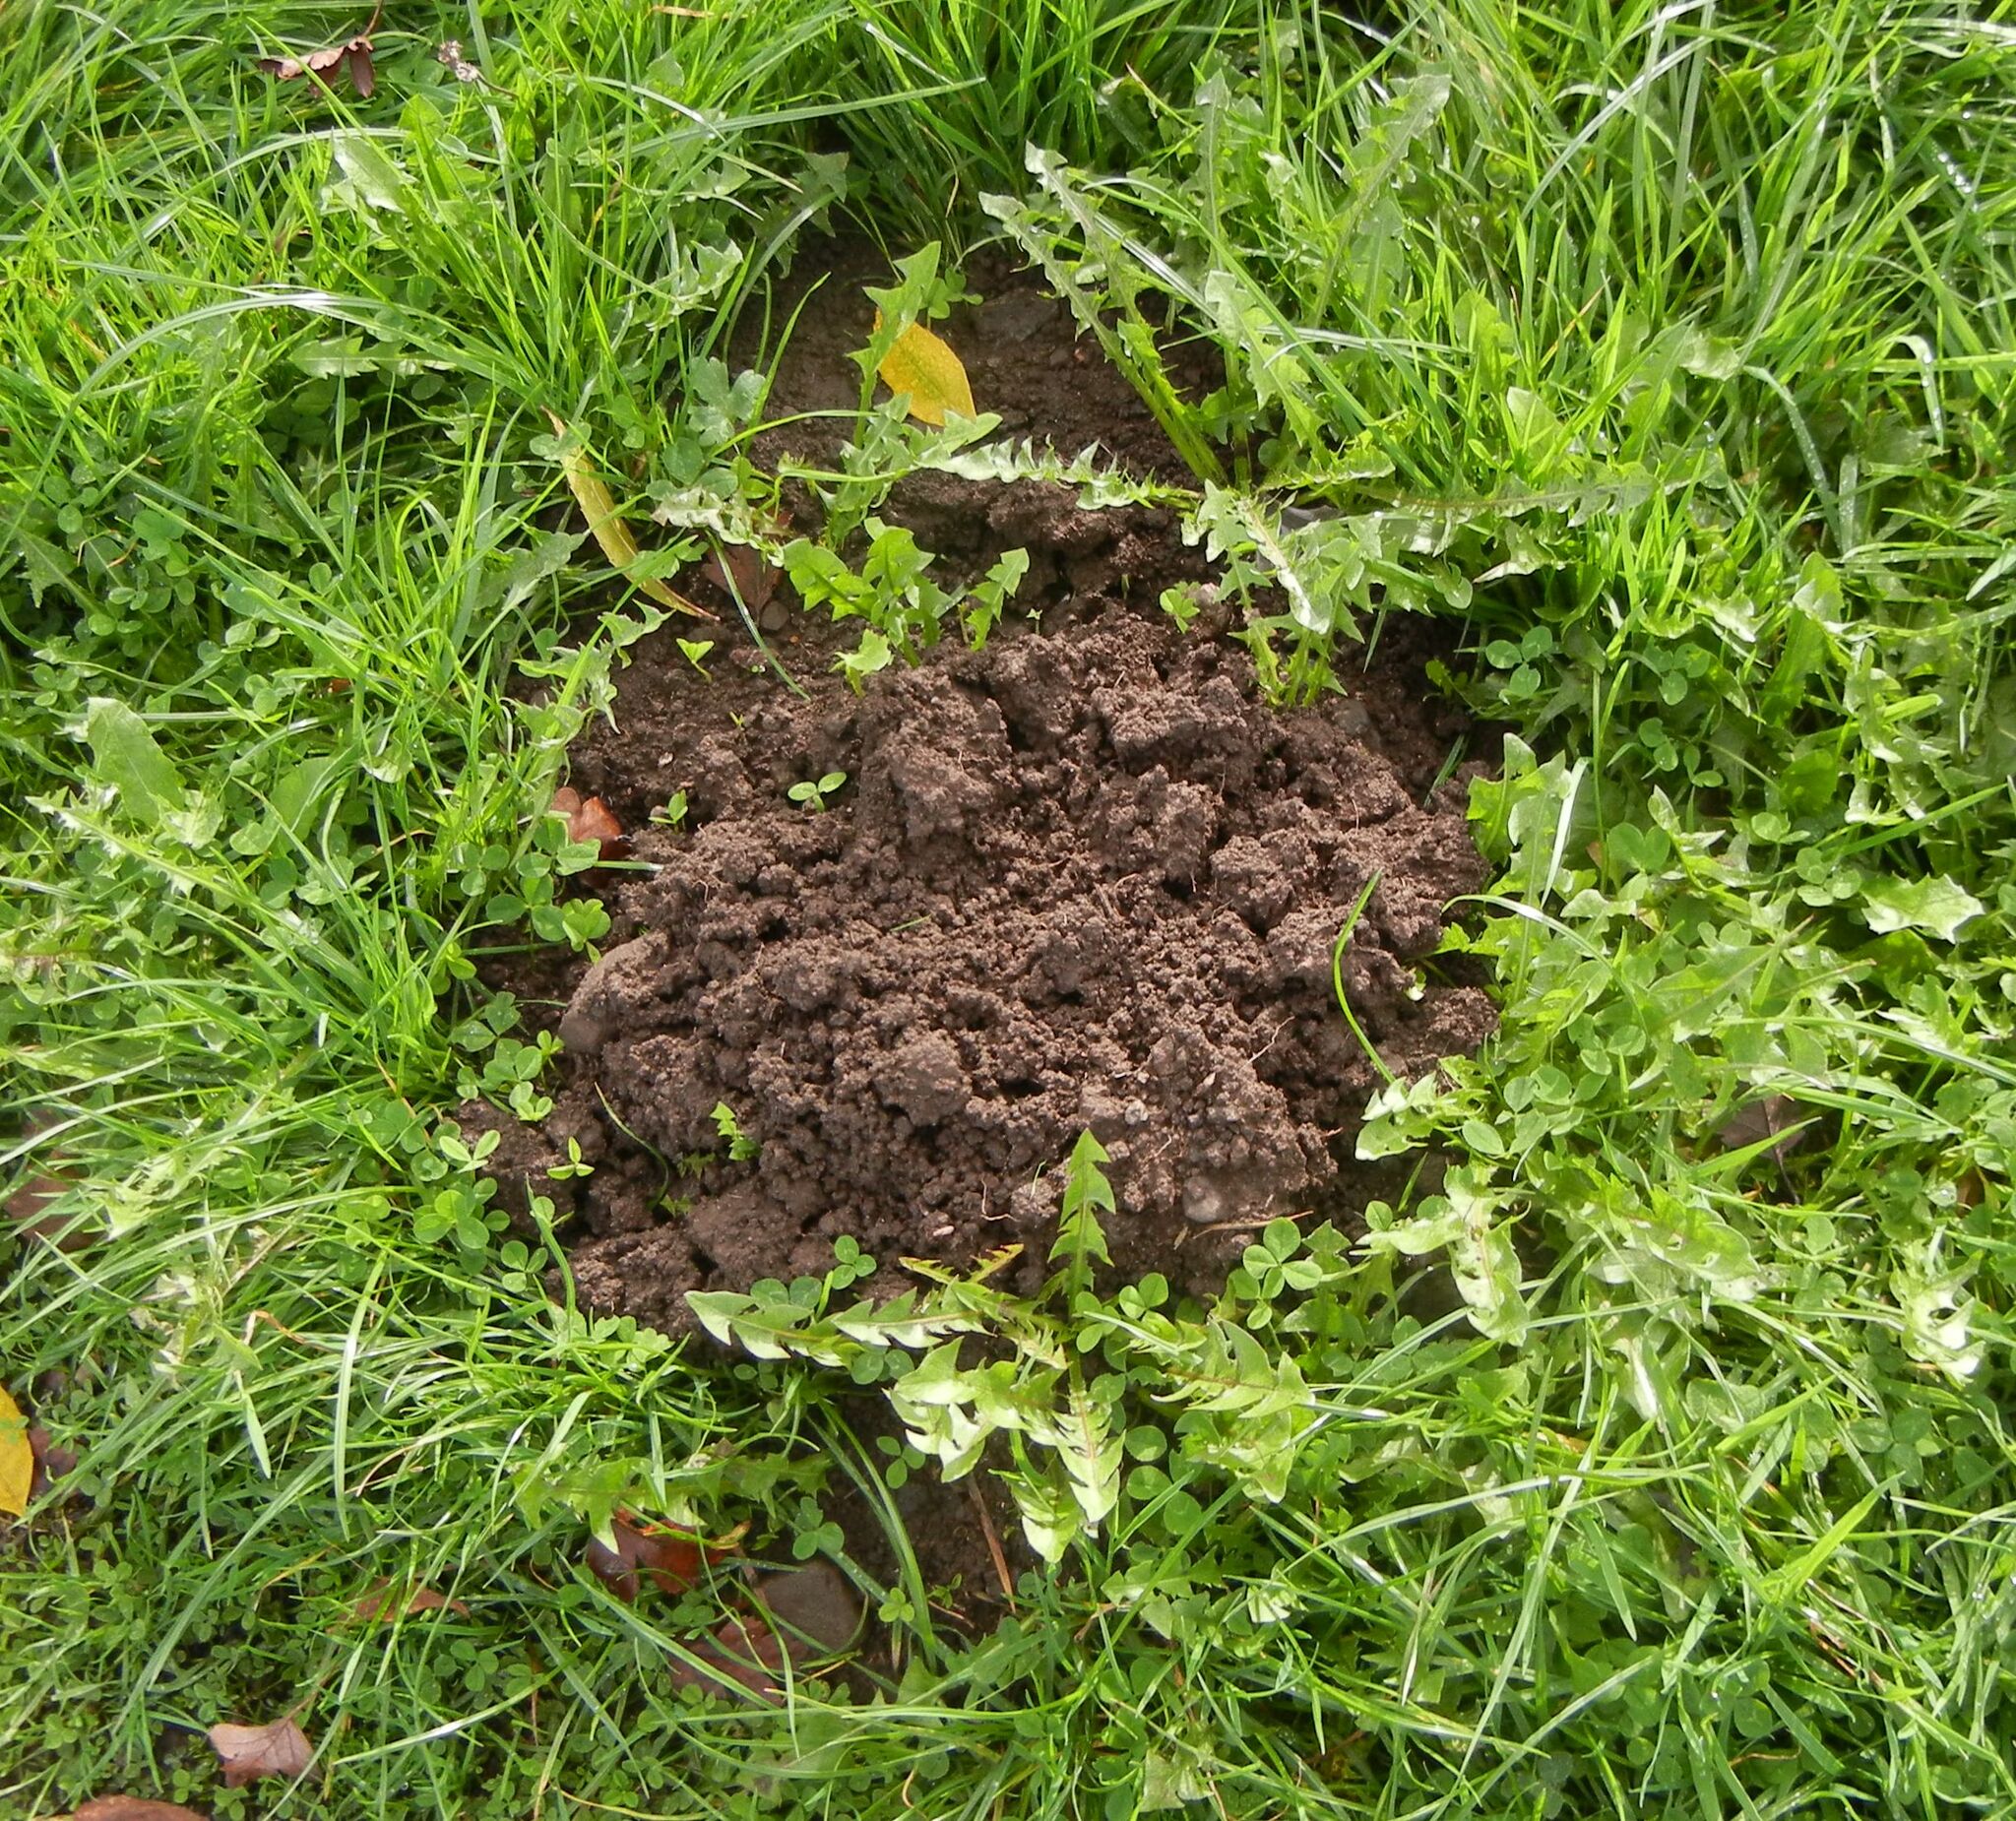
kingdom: Animalia
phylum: Chordata
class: Mammalia
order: Soricomorpha
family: Talpidae
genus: Talpa
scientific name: Talpa europaea
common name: European mole
